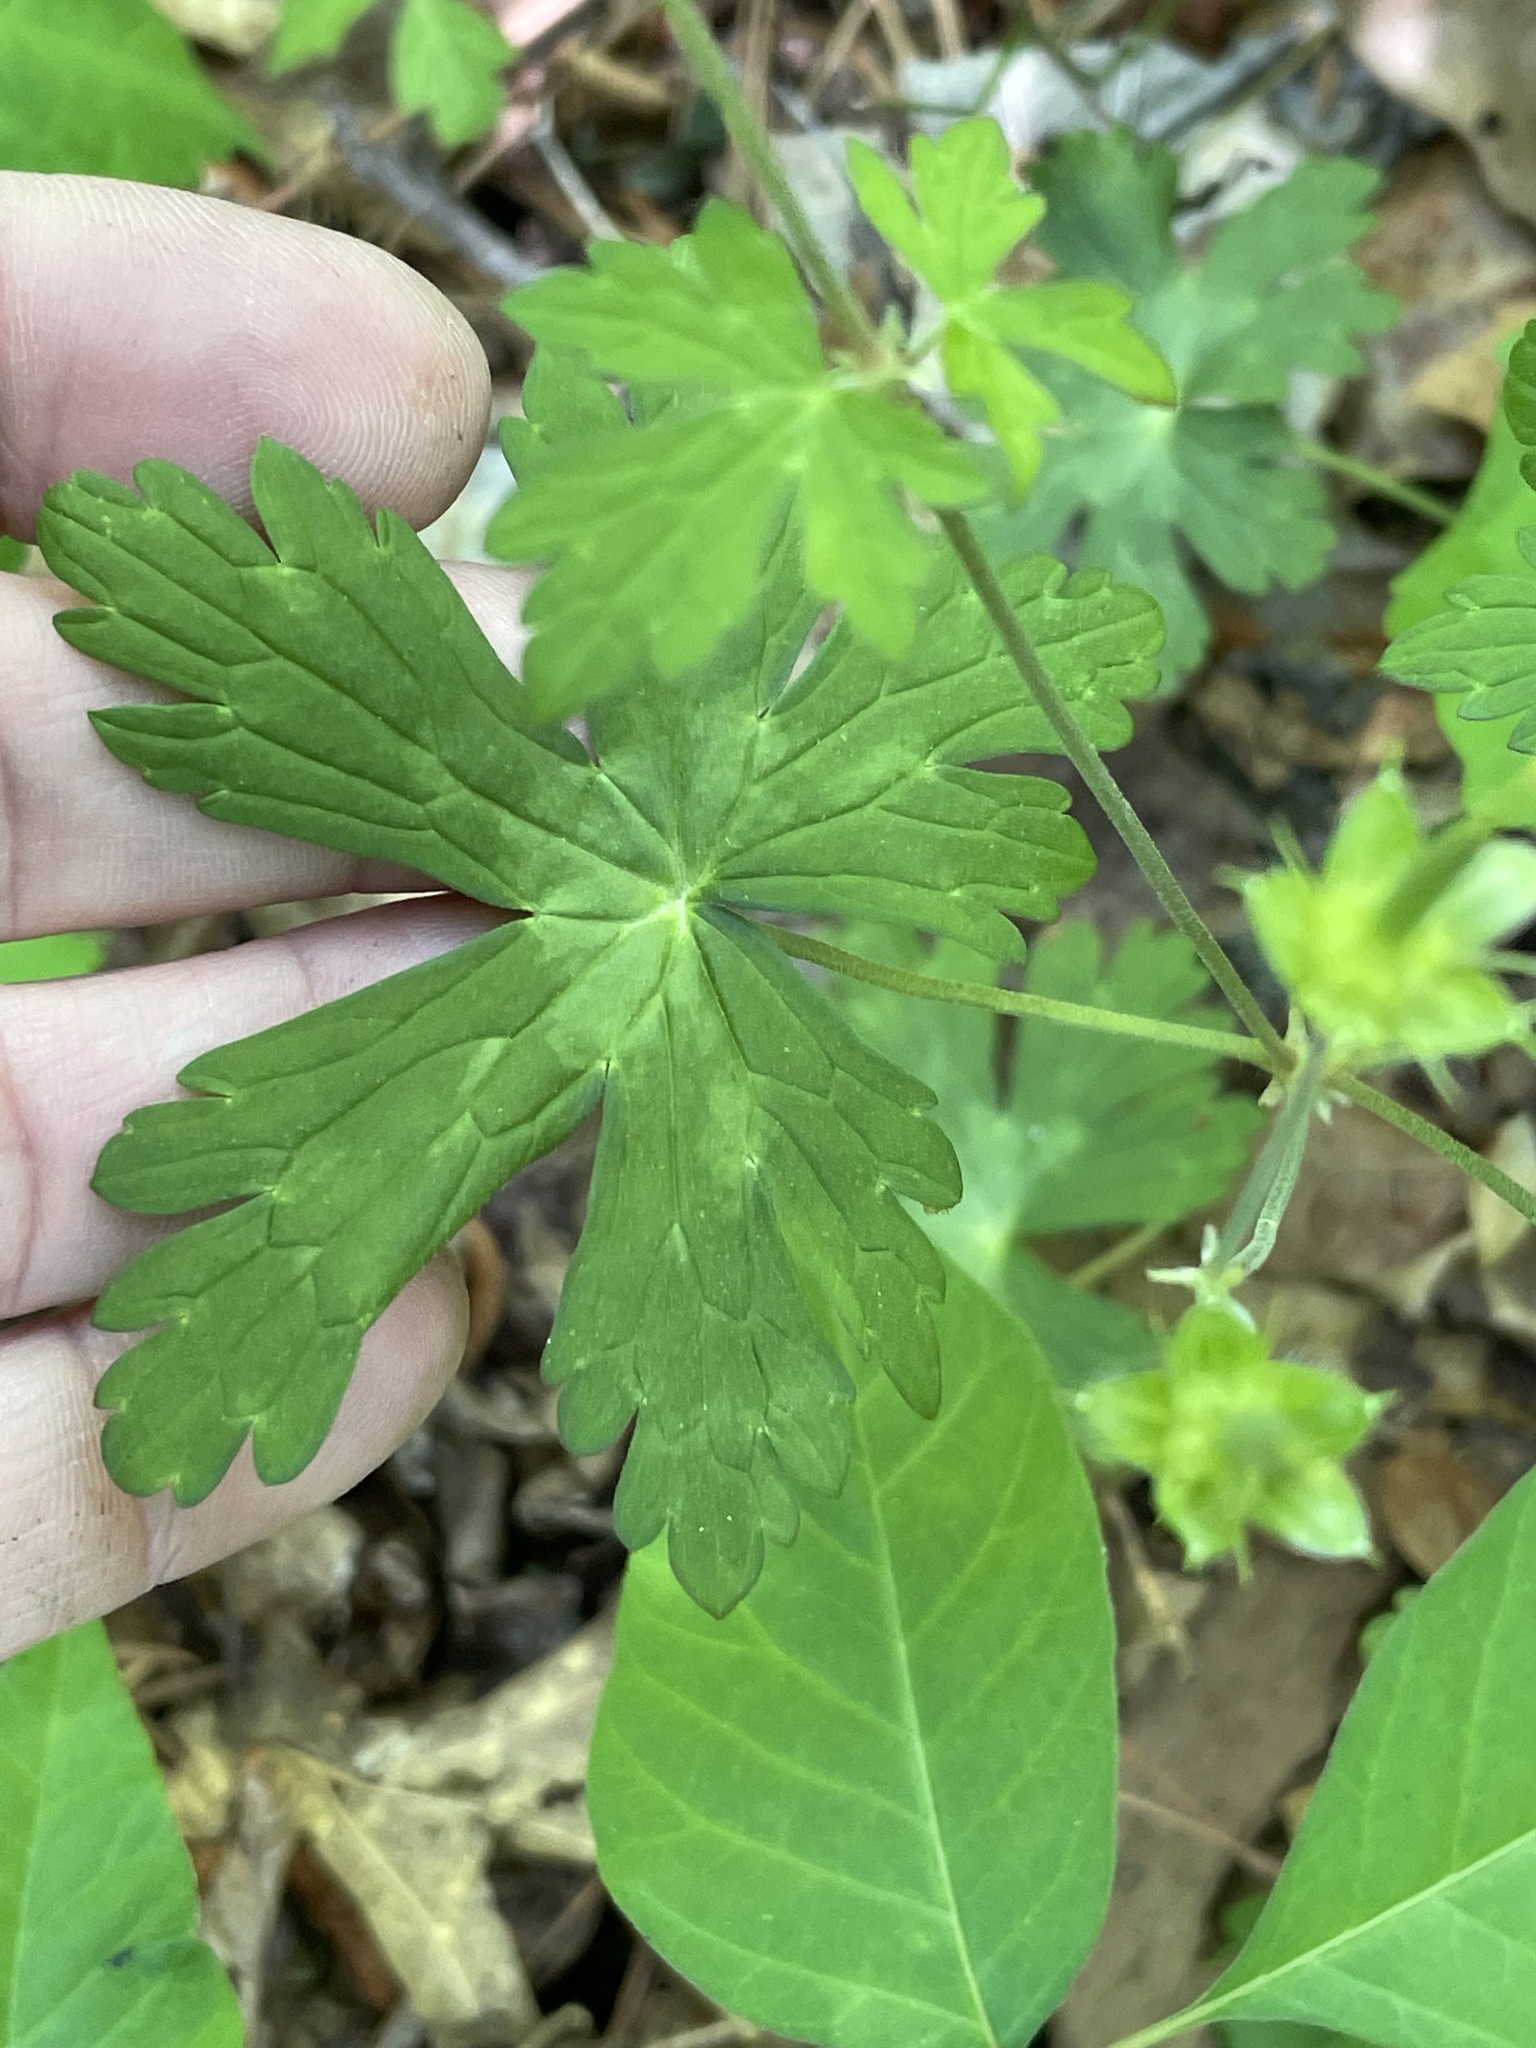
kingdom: Plantae
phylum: Tracheophyta
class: Magnoliopsida
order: Geraniales
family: Geraniaceae
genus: Geranium
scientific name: Geranium maculatum
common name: Spotted geranium
